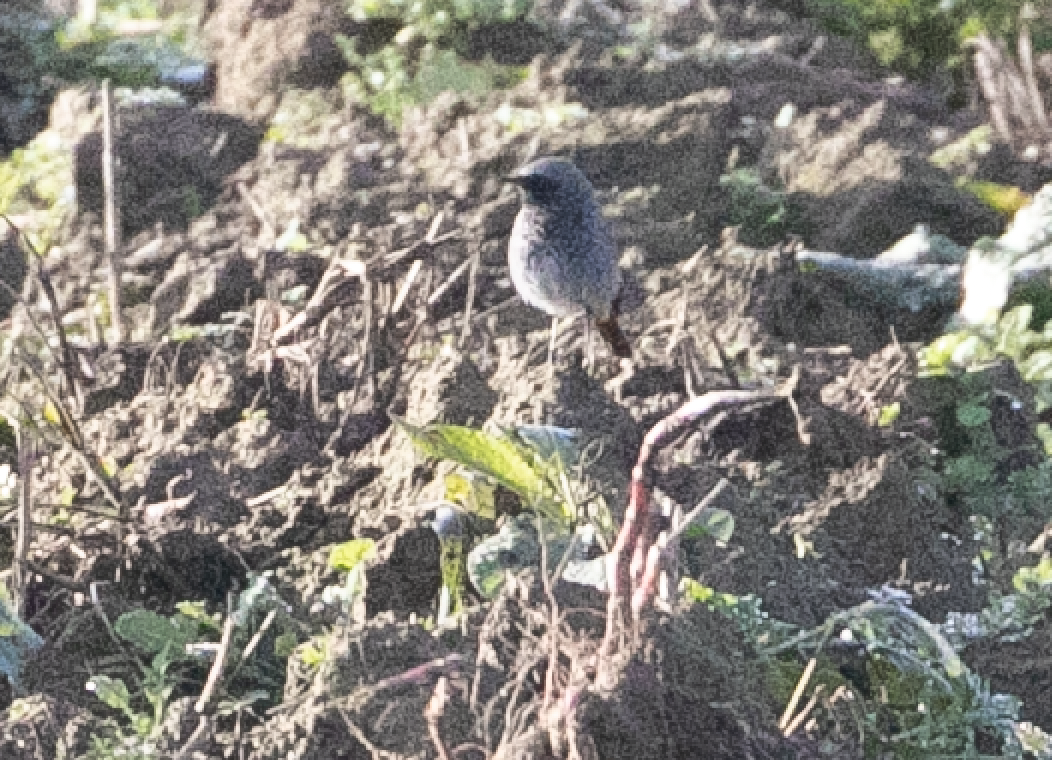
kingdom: Animalia
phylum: Chordata
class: Aves
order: Passeriformes
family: Muscicapidae
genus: Phoenicurus
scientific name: Phoenicurus ochruros
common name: Black redstart
